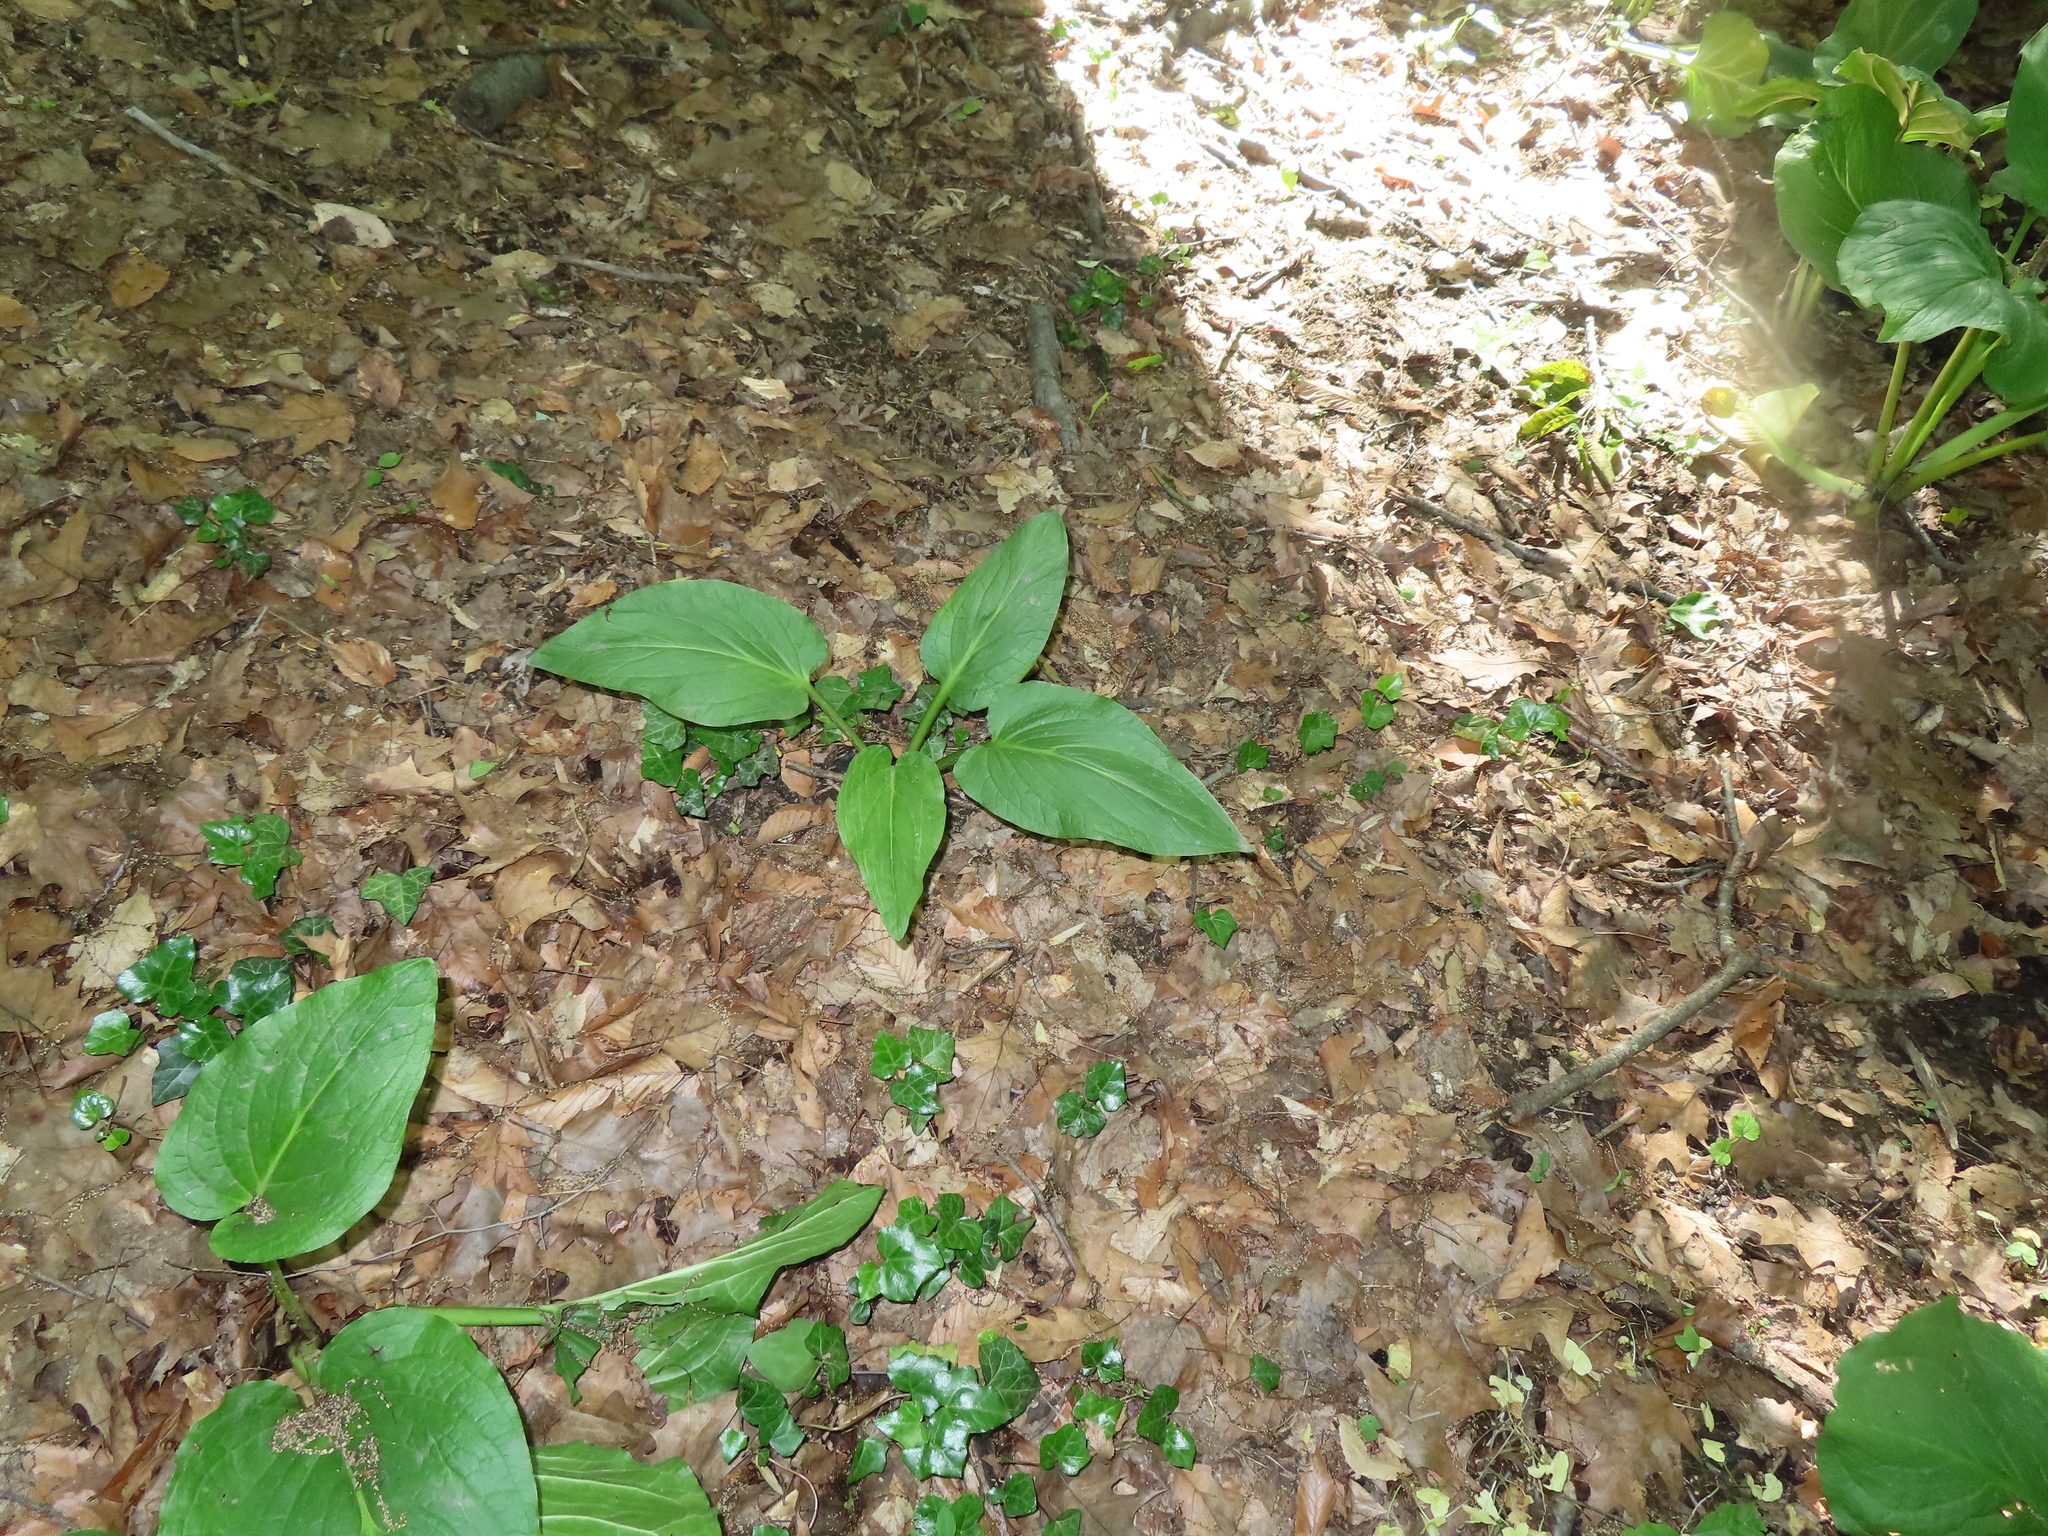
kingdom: Plantae
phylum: Tracheophyta
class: Liliopsida
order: Alismatales
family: Araceae
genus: Symplocarpus
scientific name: Symplocarpus foetidus
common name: Eastern skunk cabbage
